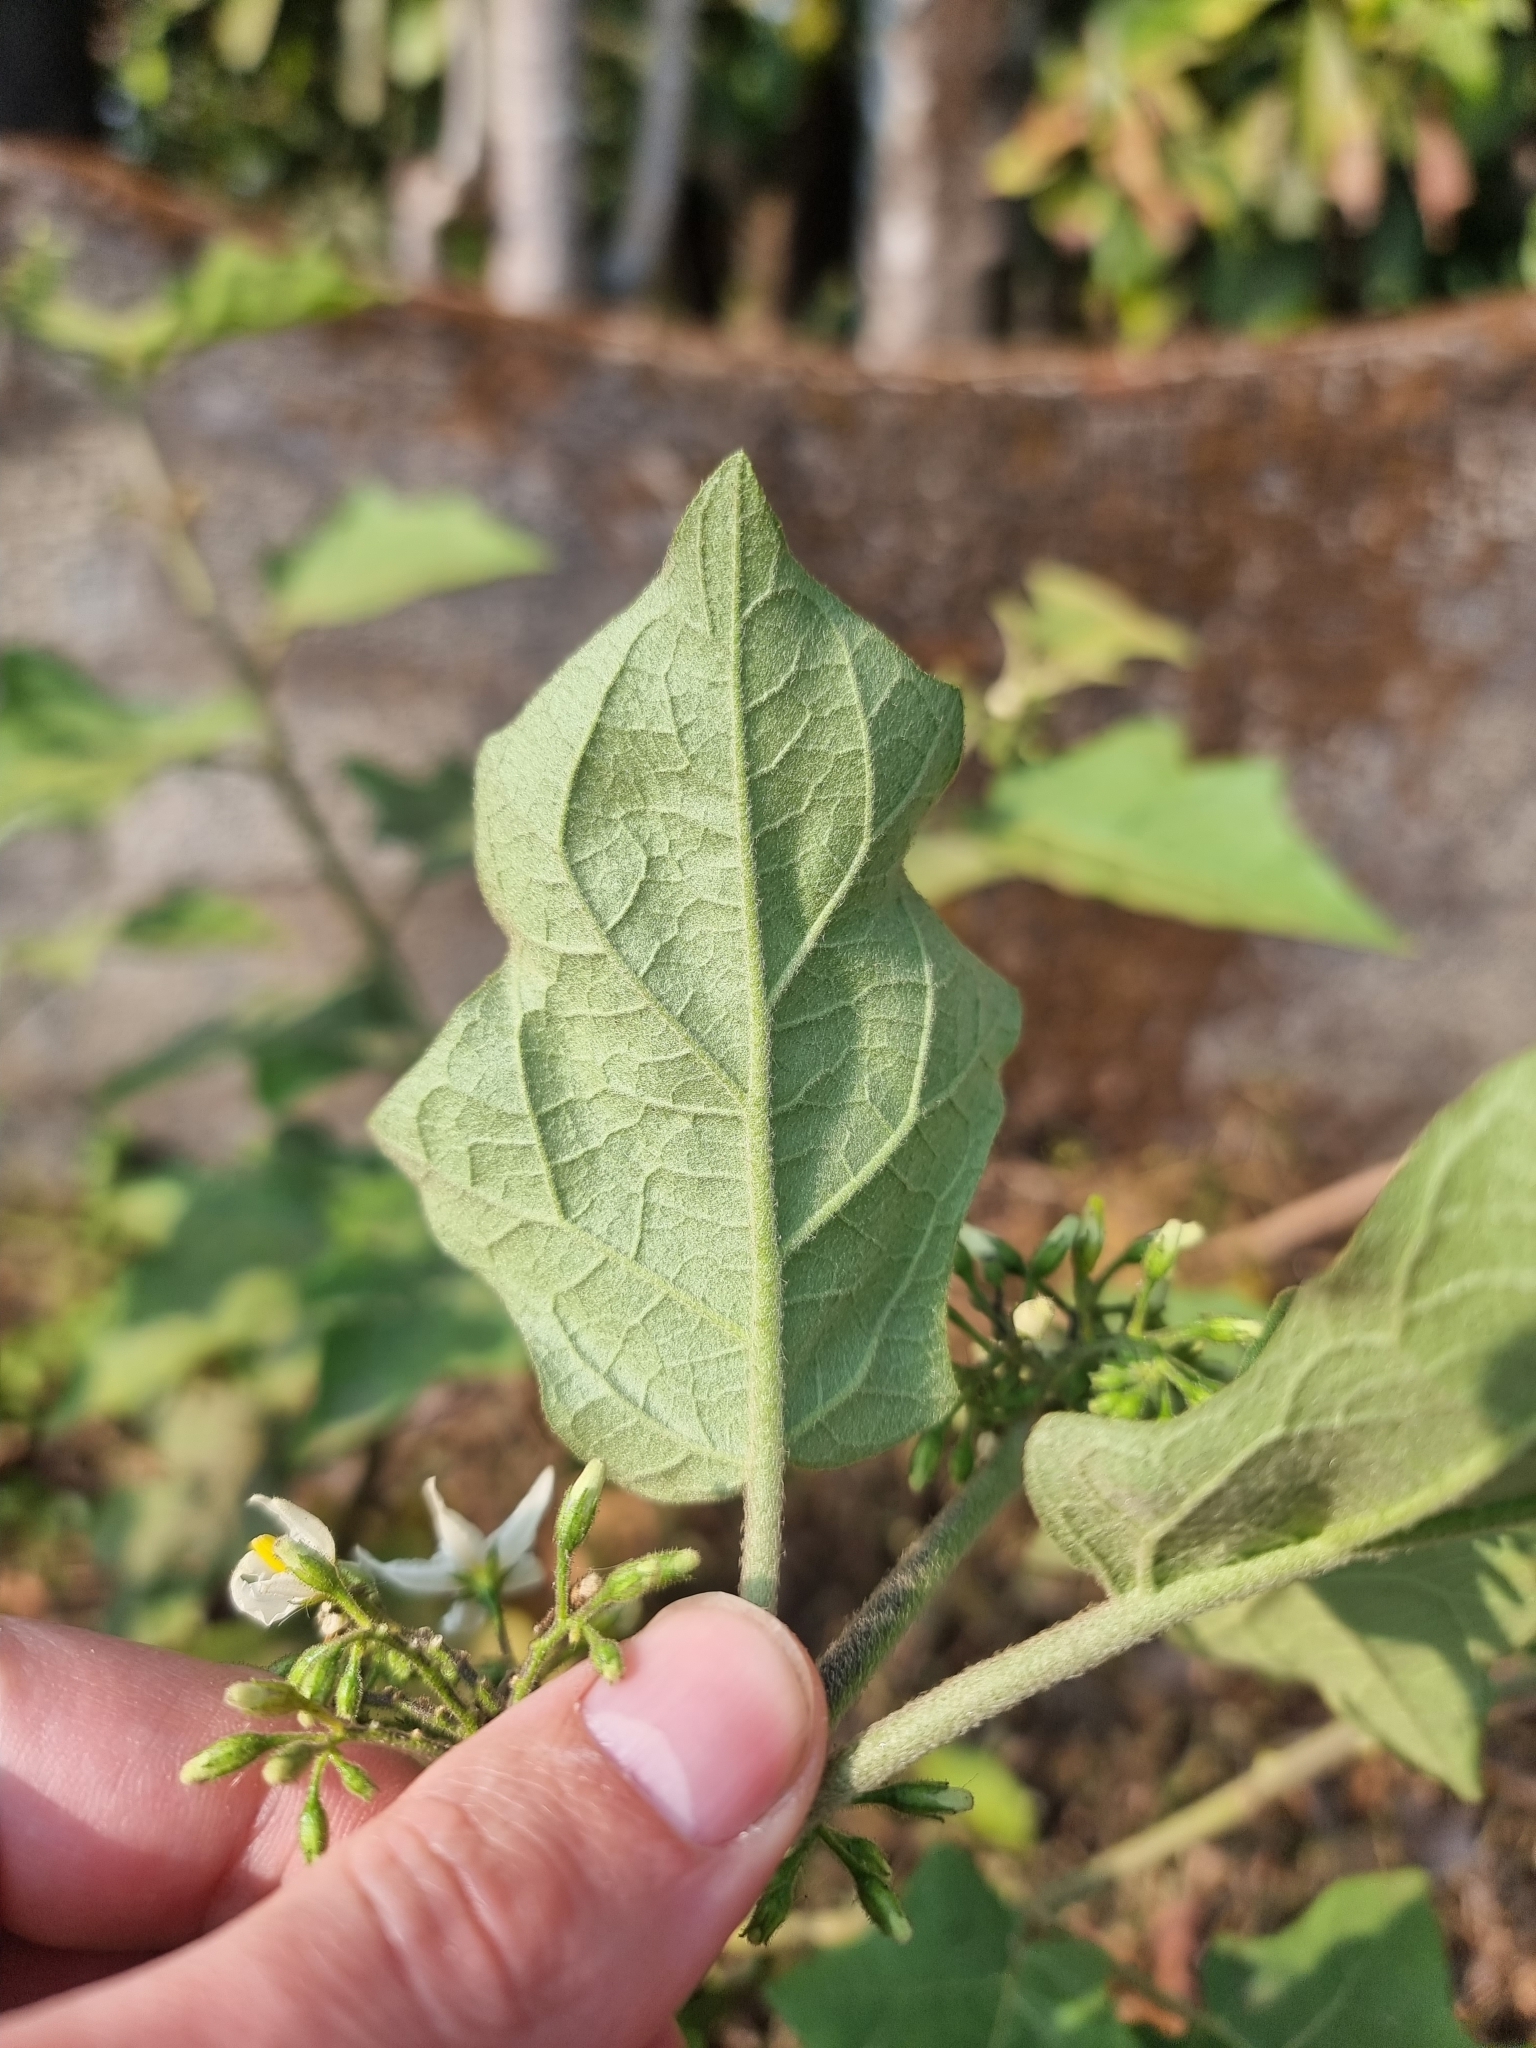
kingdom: Plantae
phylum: Tracheophyta
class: Magnoliopsida
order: Solanales
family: Solanaceae
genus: Solanum
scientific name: Solanum torvum
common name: Turkey berry
